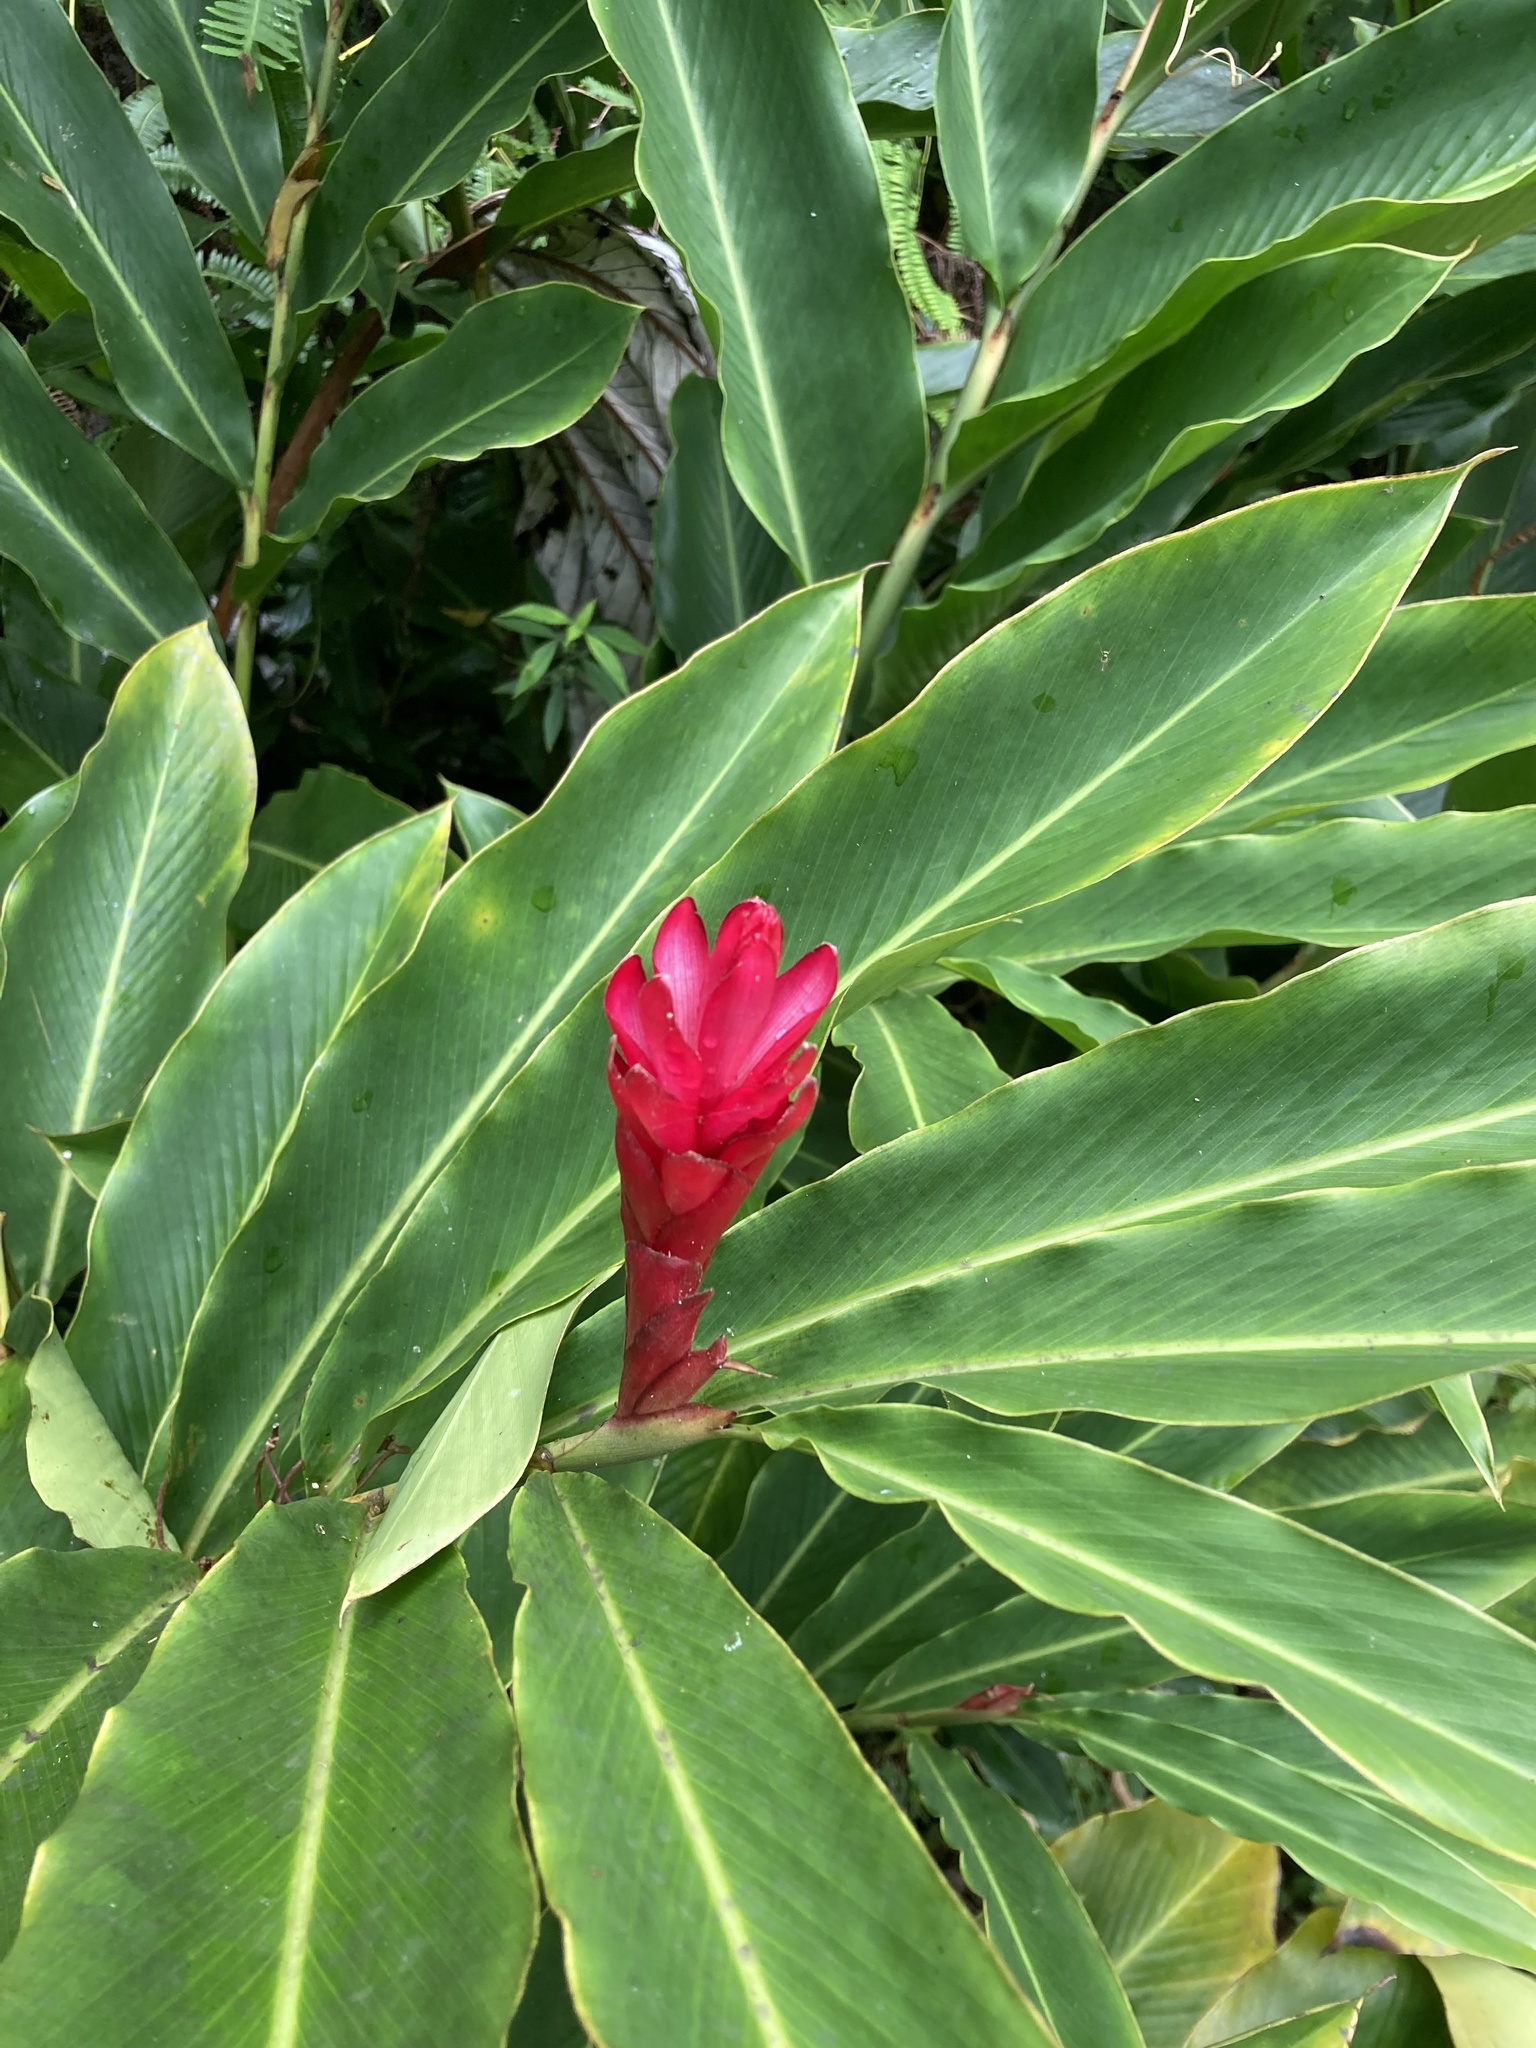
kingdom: Plantae
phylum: Tracheophyta
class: Liliopsida
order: Zingiberales
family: Zingiberaceae
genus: Alpinia
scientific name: Alpinia purpurata
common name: Red ginger
